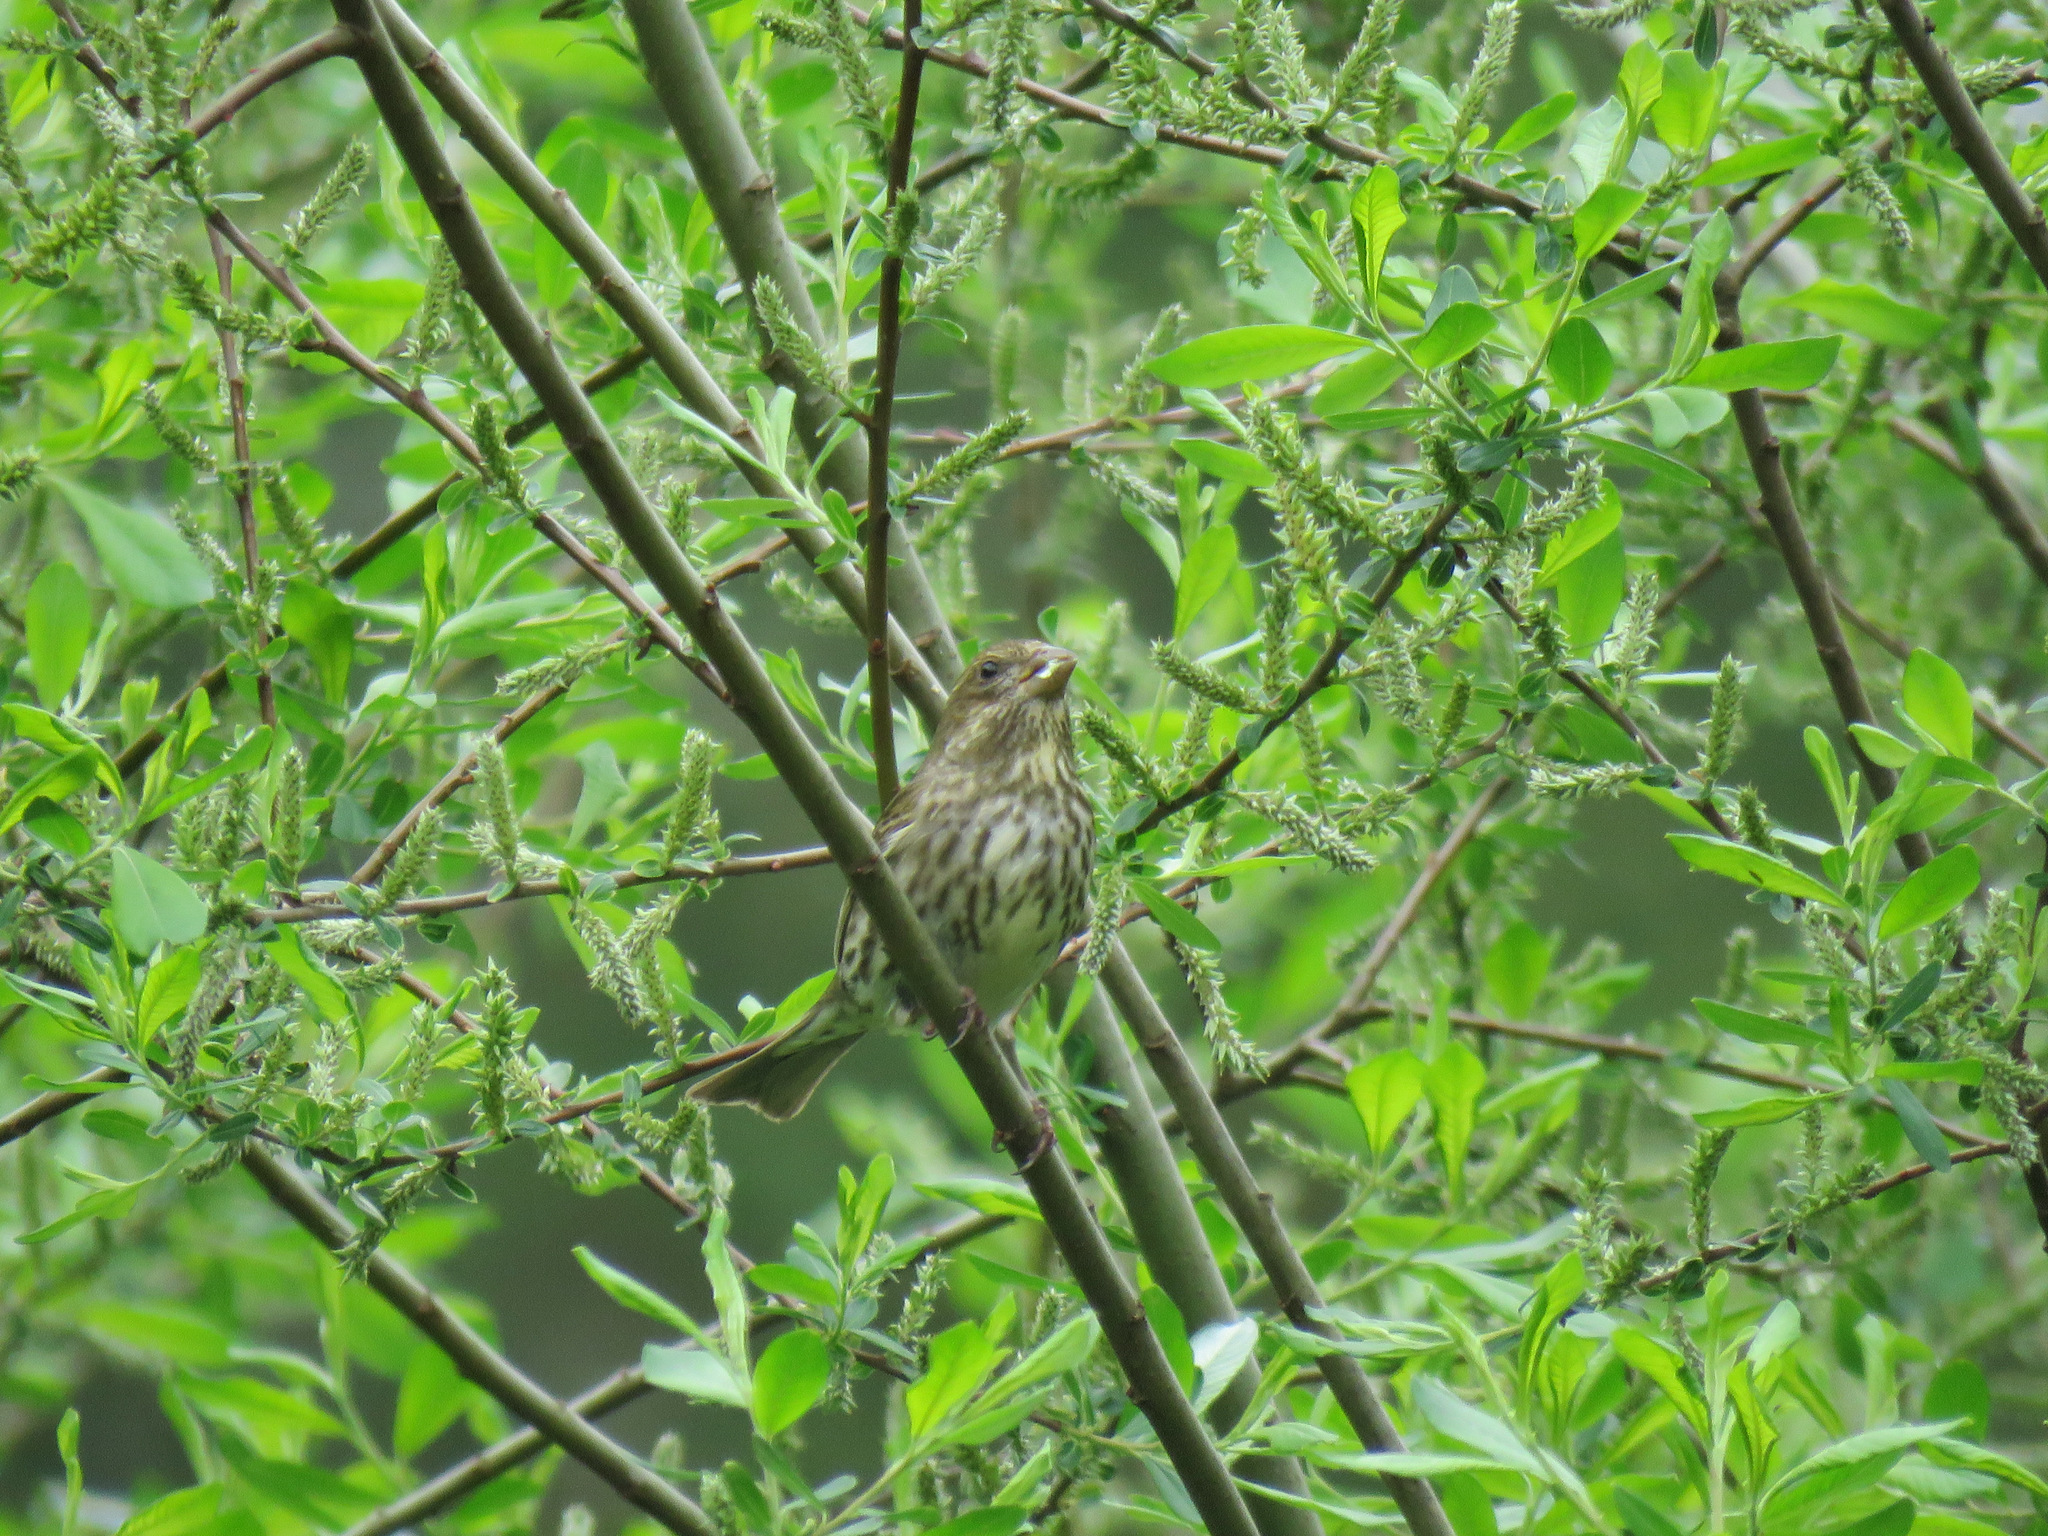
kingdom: Animalia
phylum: Chordata
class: Aves
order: Passeriformes
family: Fringillidae
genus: Haemorhous
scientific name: Haemorhous purpureus
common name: Purple finch
